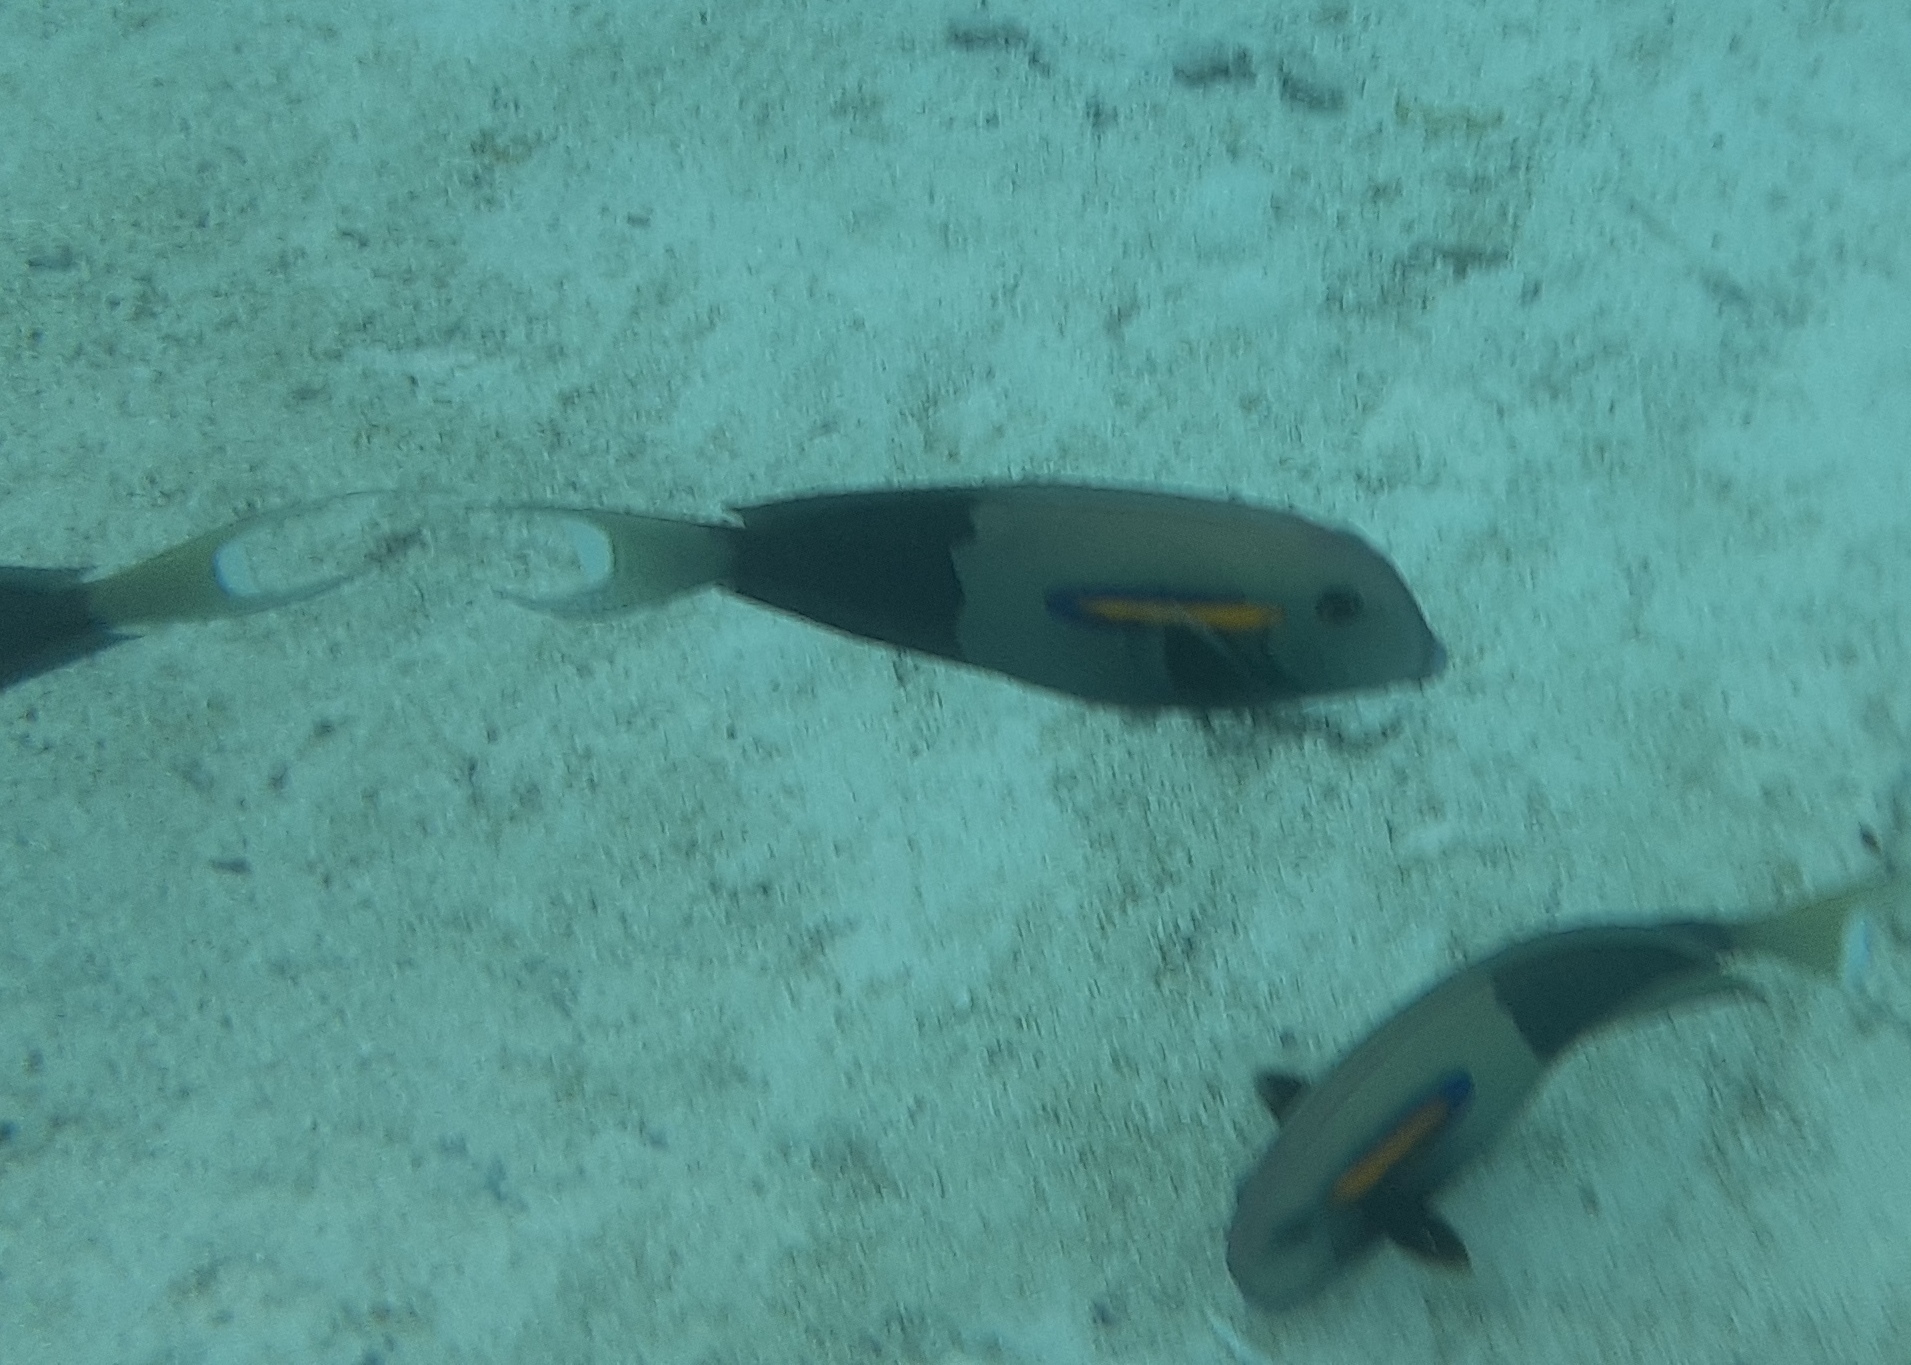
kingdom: Animalia
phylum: Chordata
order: Perciformes
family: Acanthuridae
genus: Acanthurus
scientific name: Acanthurus olivaceus
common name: Gendarme fish
